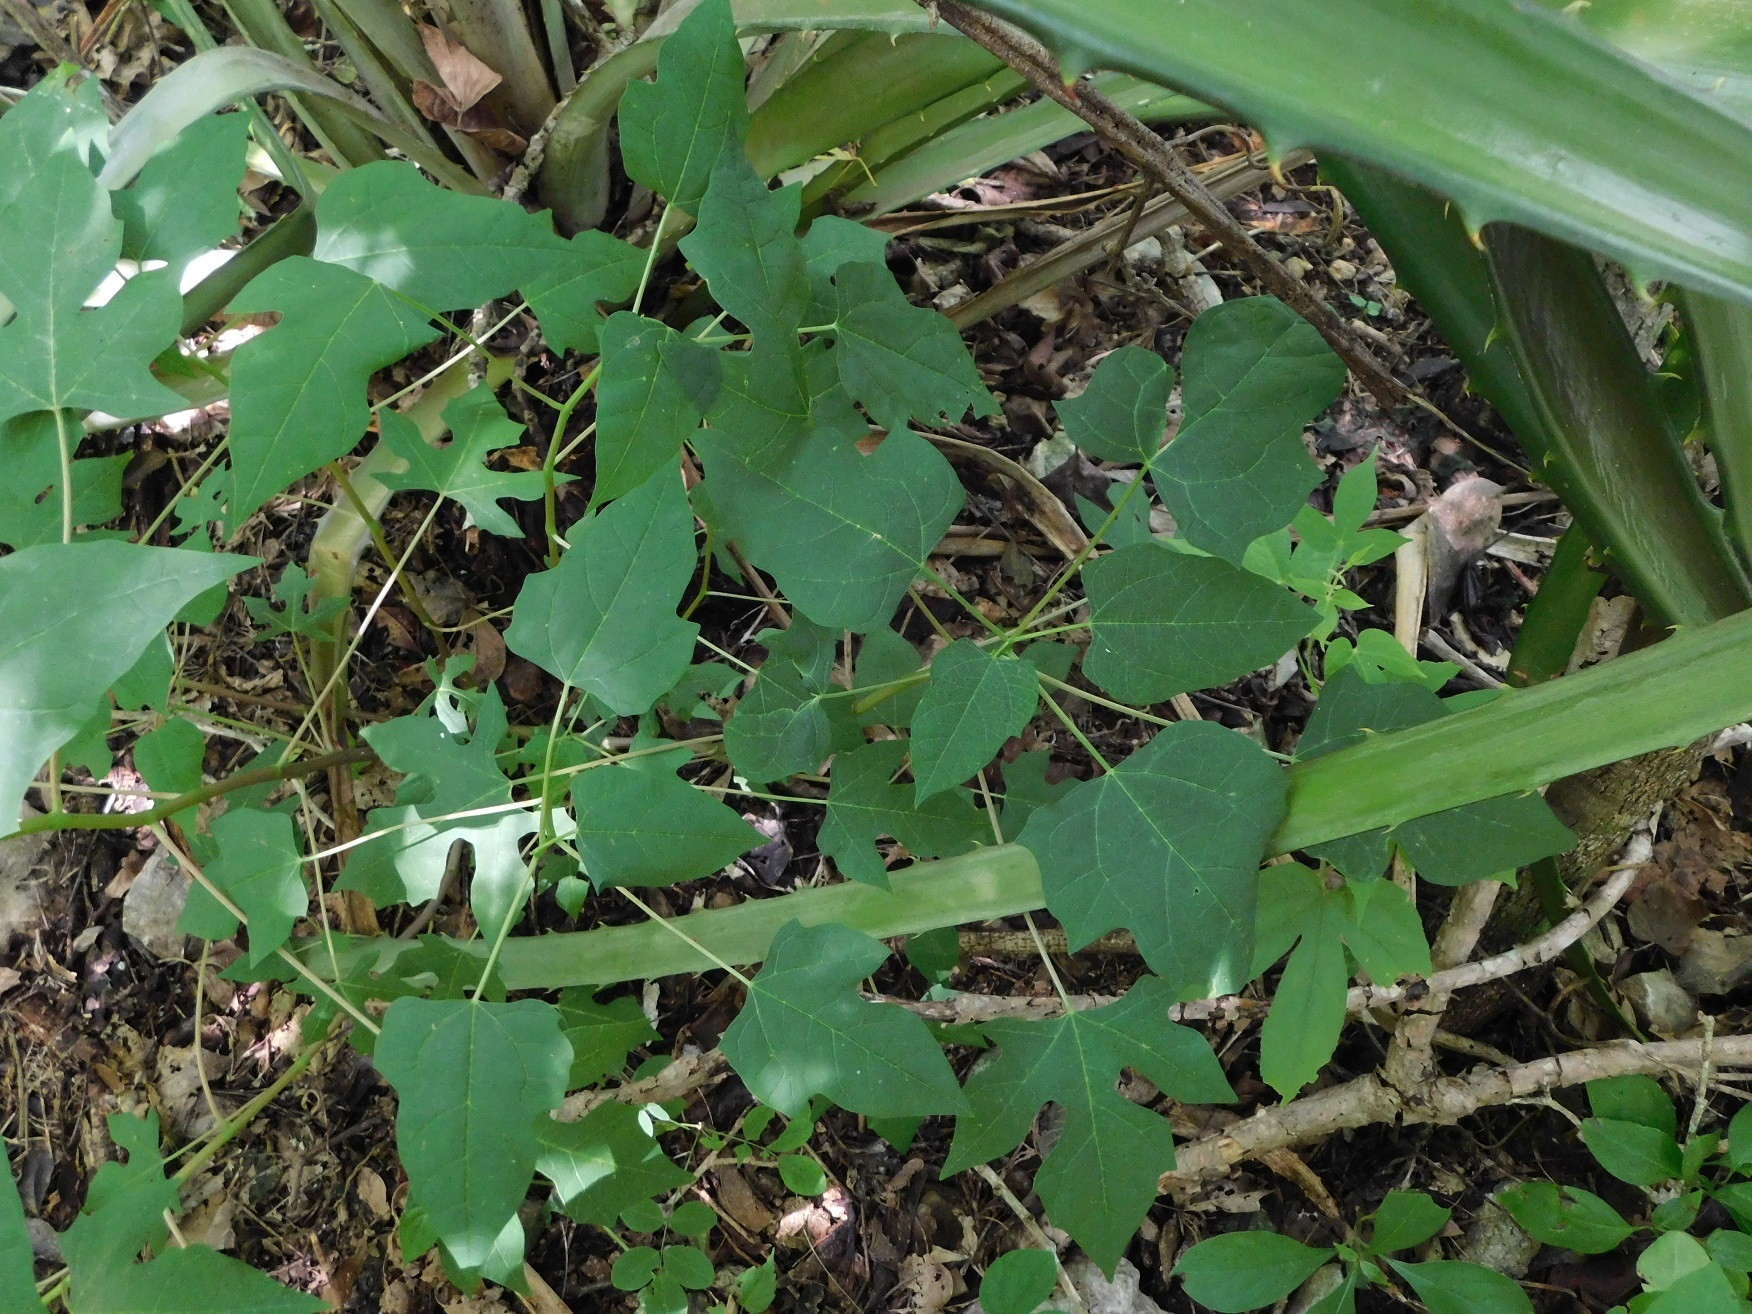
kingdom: Plantae
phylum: Tracheophyta
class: Magnoliopsida
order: Brassicales
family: Caricaceae
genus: Vasconcellea
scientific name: Vasconcellea cauliflora
